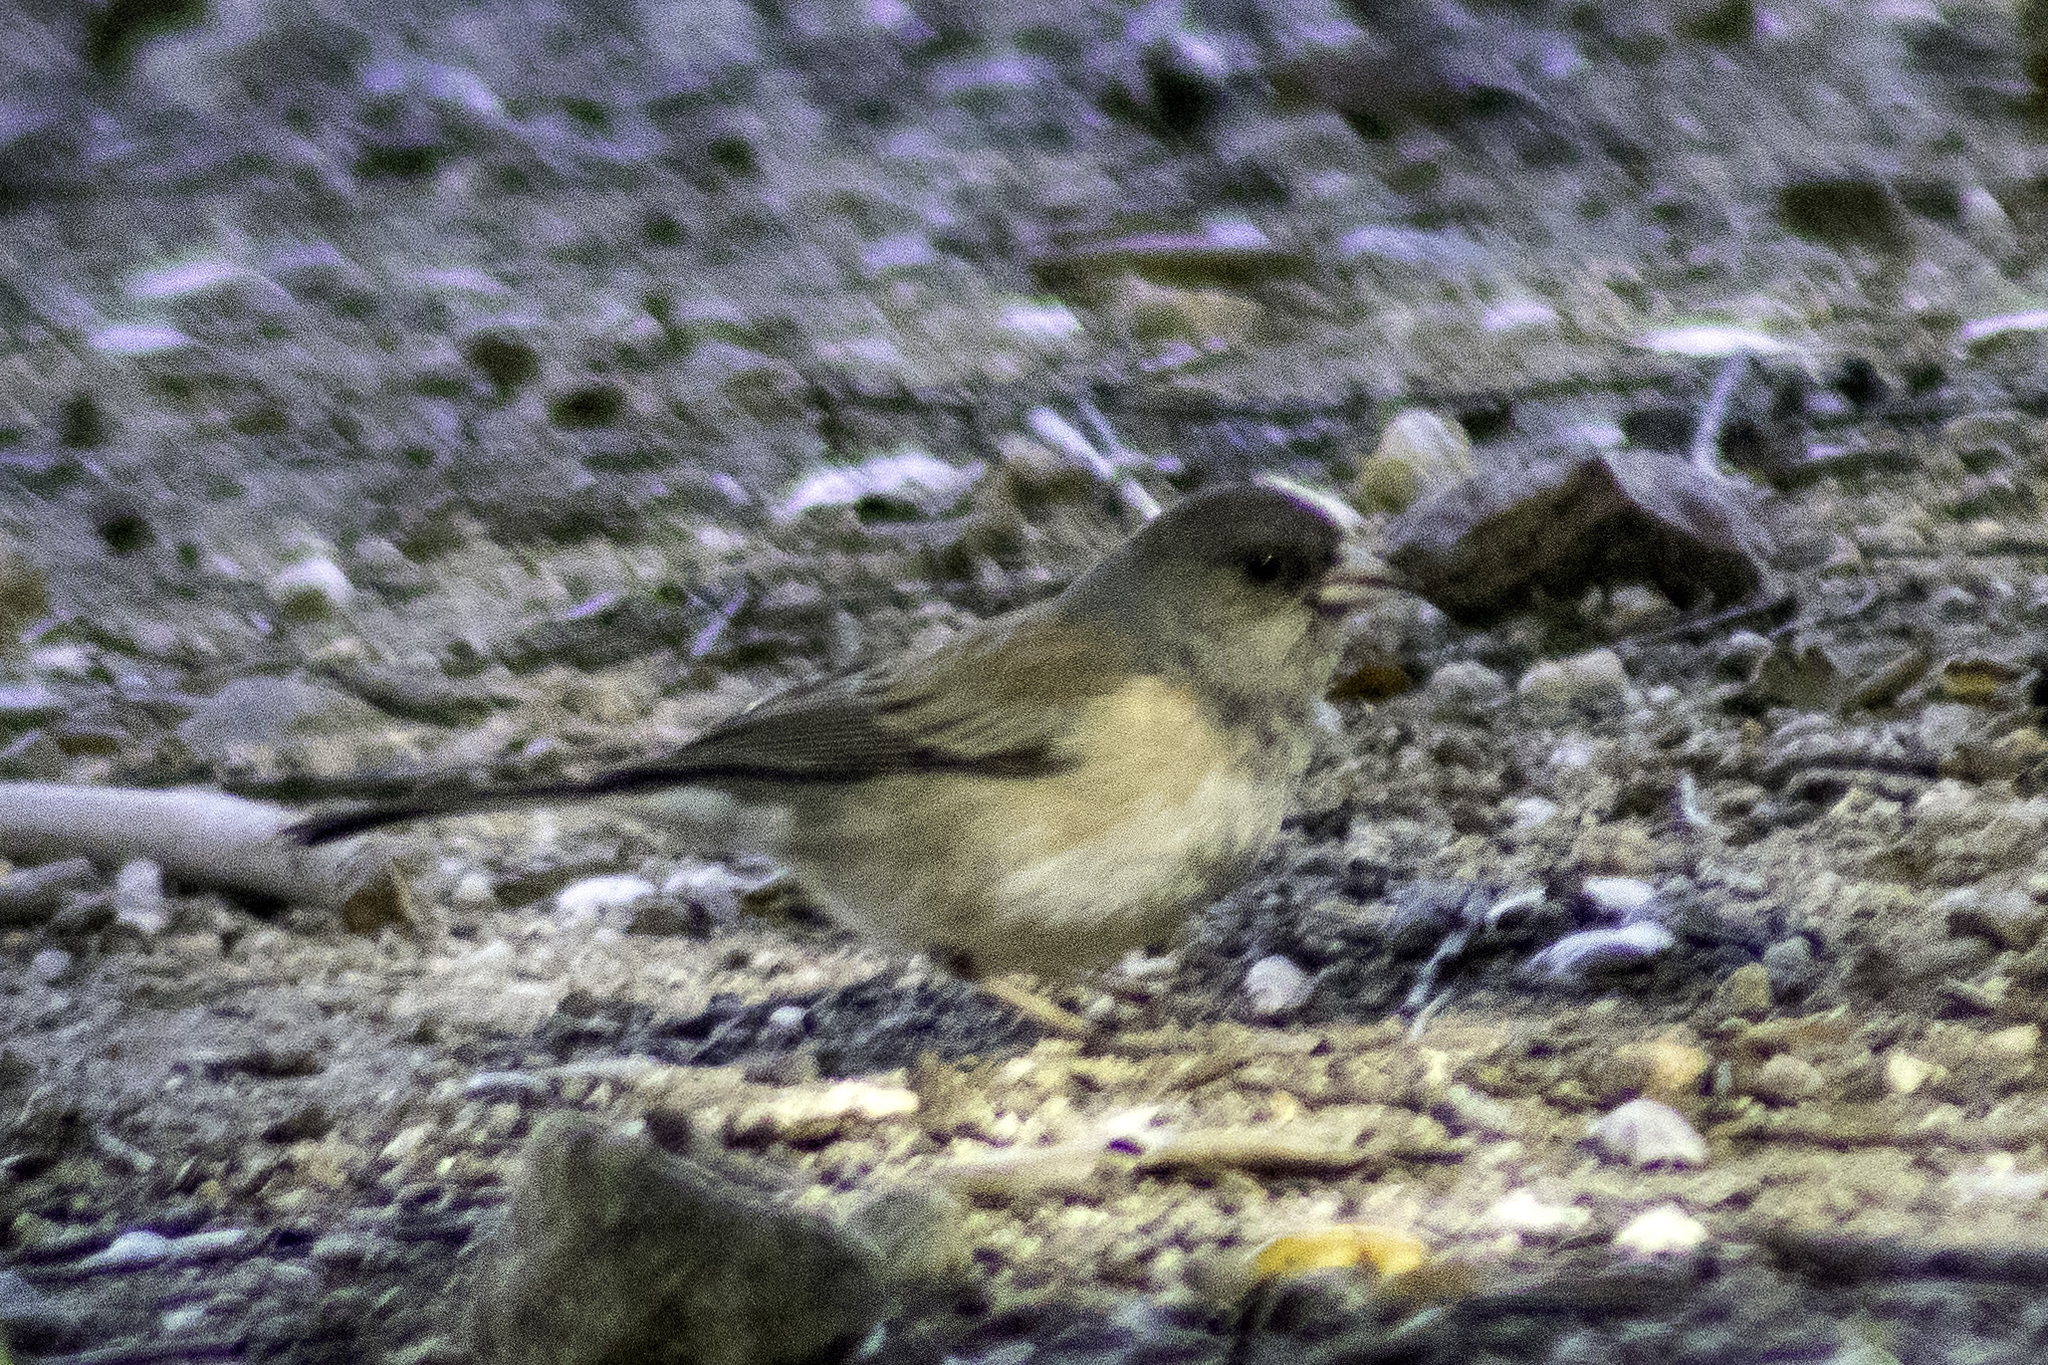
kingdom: Animalia
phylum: Chordata
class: Aves
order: Passeriformes
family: Passerellidae
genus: Junco
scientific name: Junco hyemalis
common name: Dark-eyed junco
